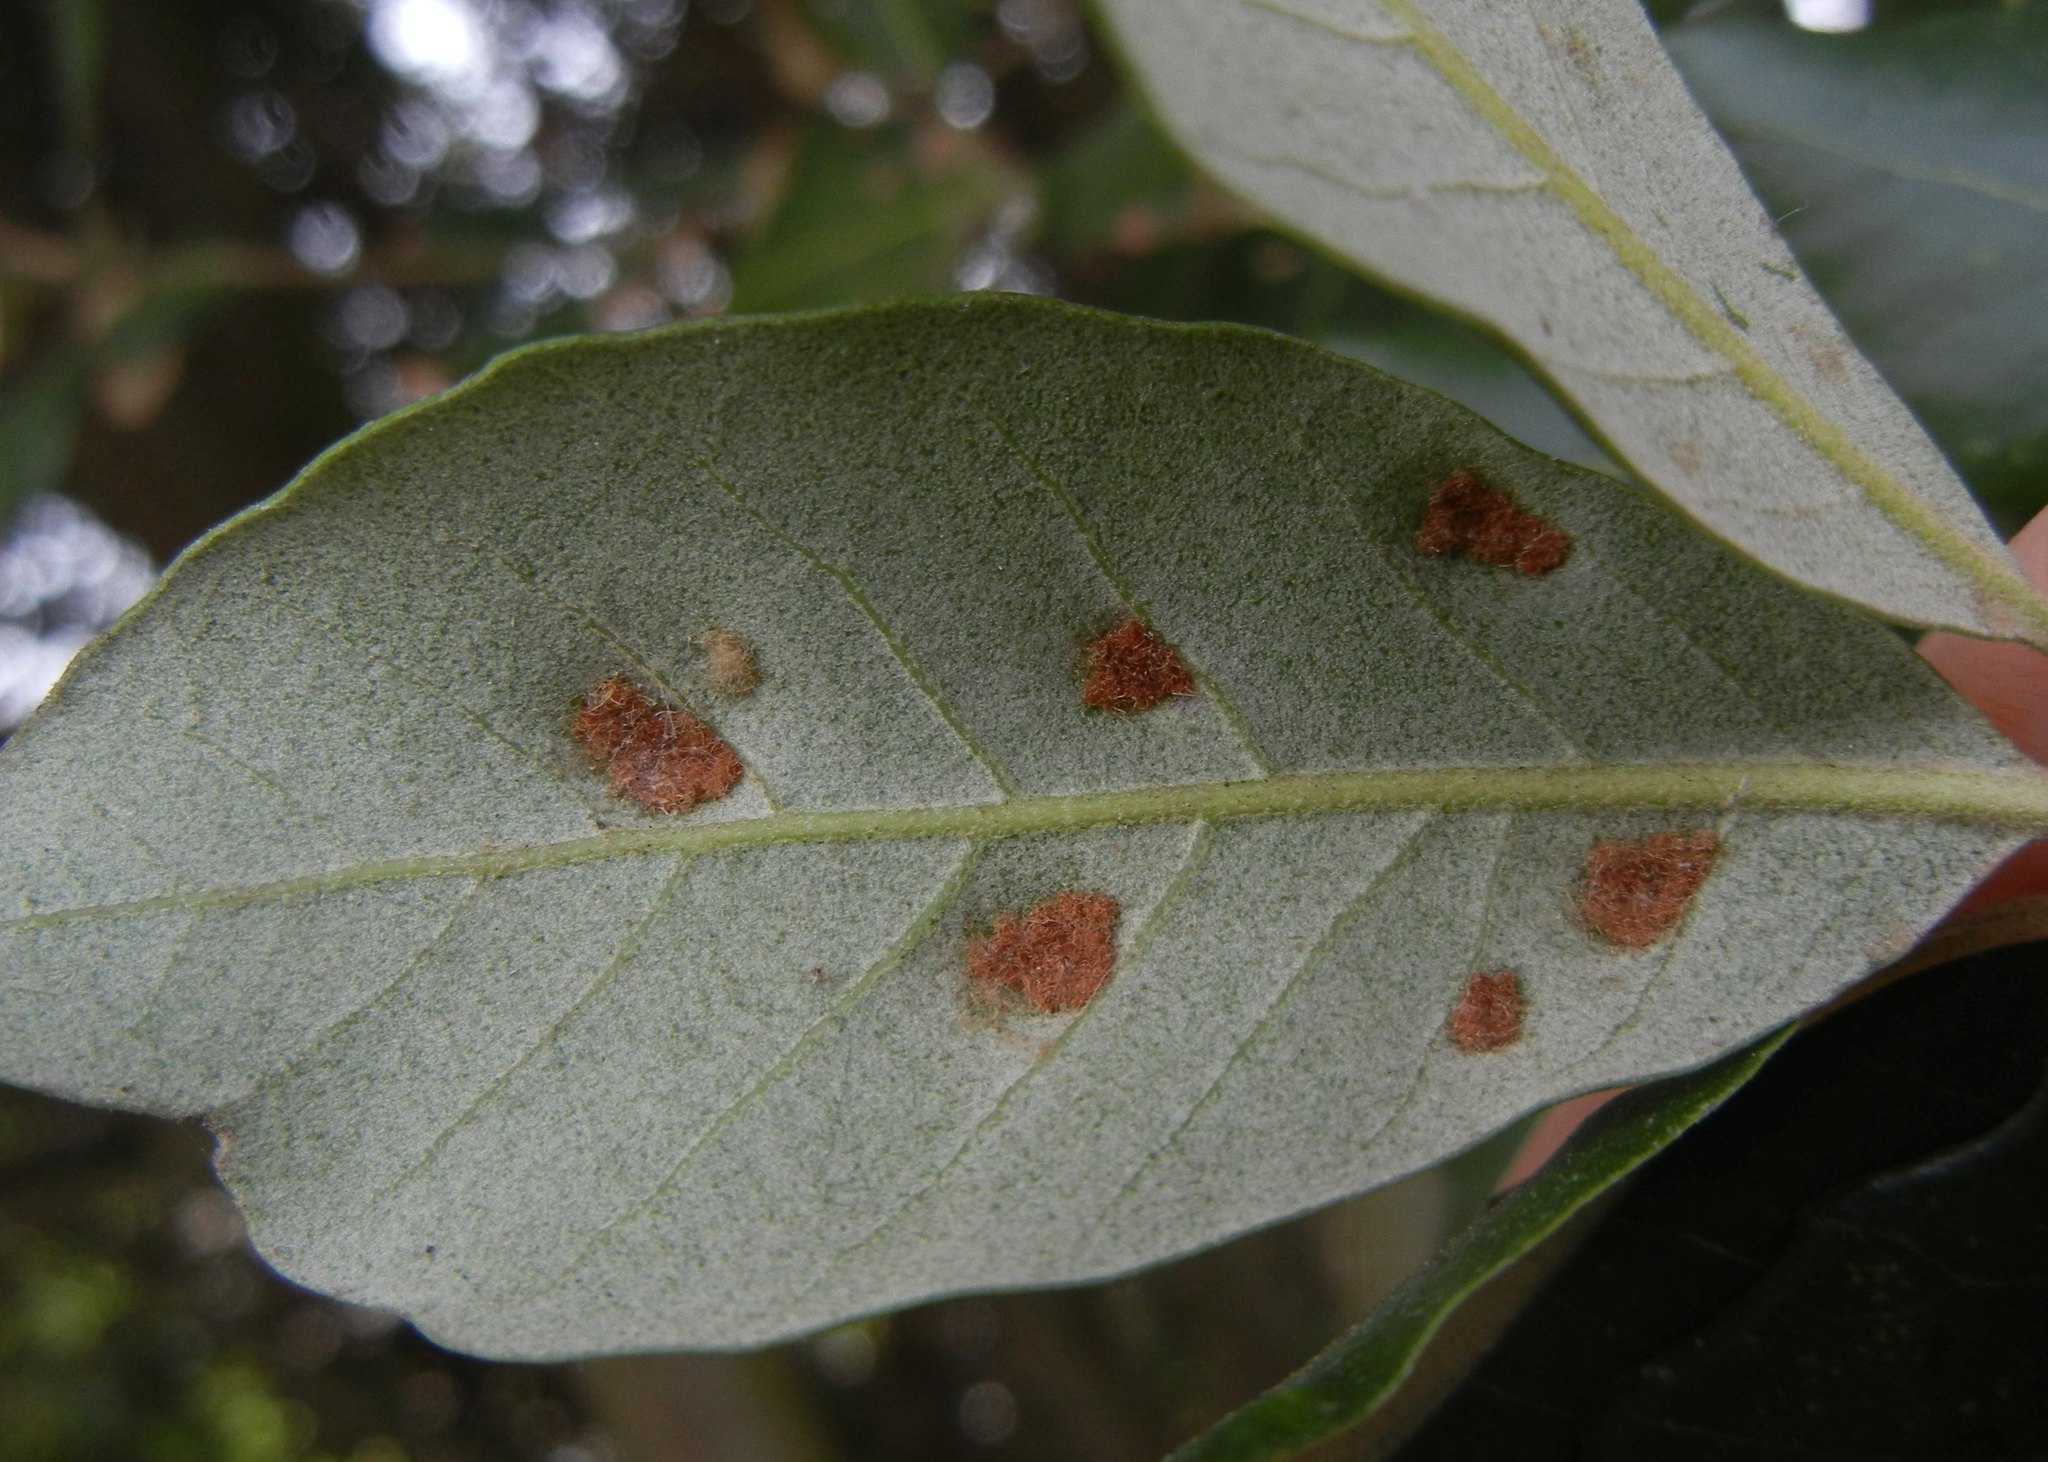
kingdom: Animalia
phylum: Arthropoda
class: Arachnida
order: Trombidiformes
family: Eriophyidae
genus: Aceria
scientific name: Aceria ilicis
